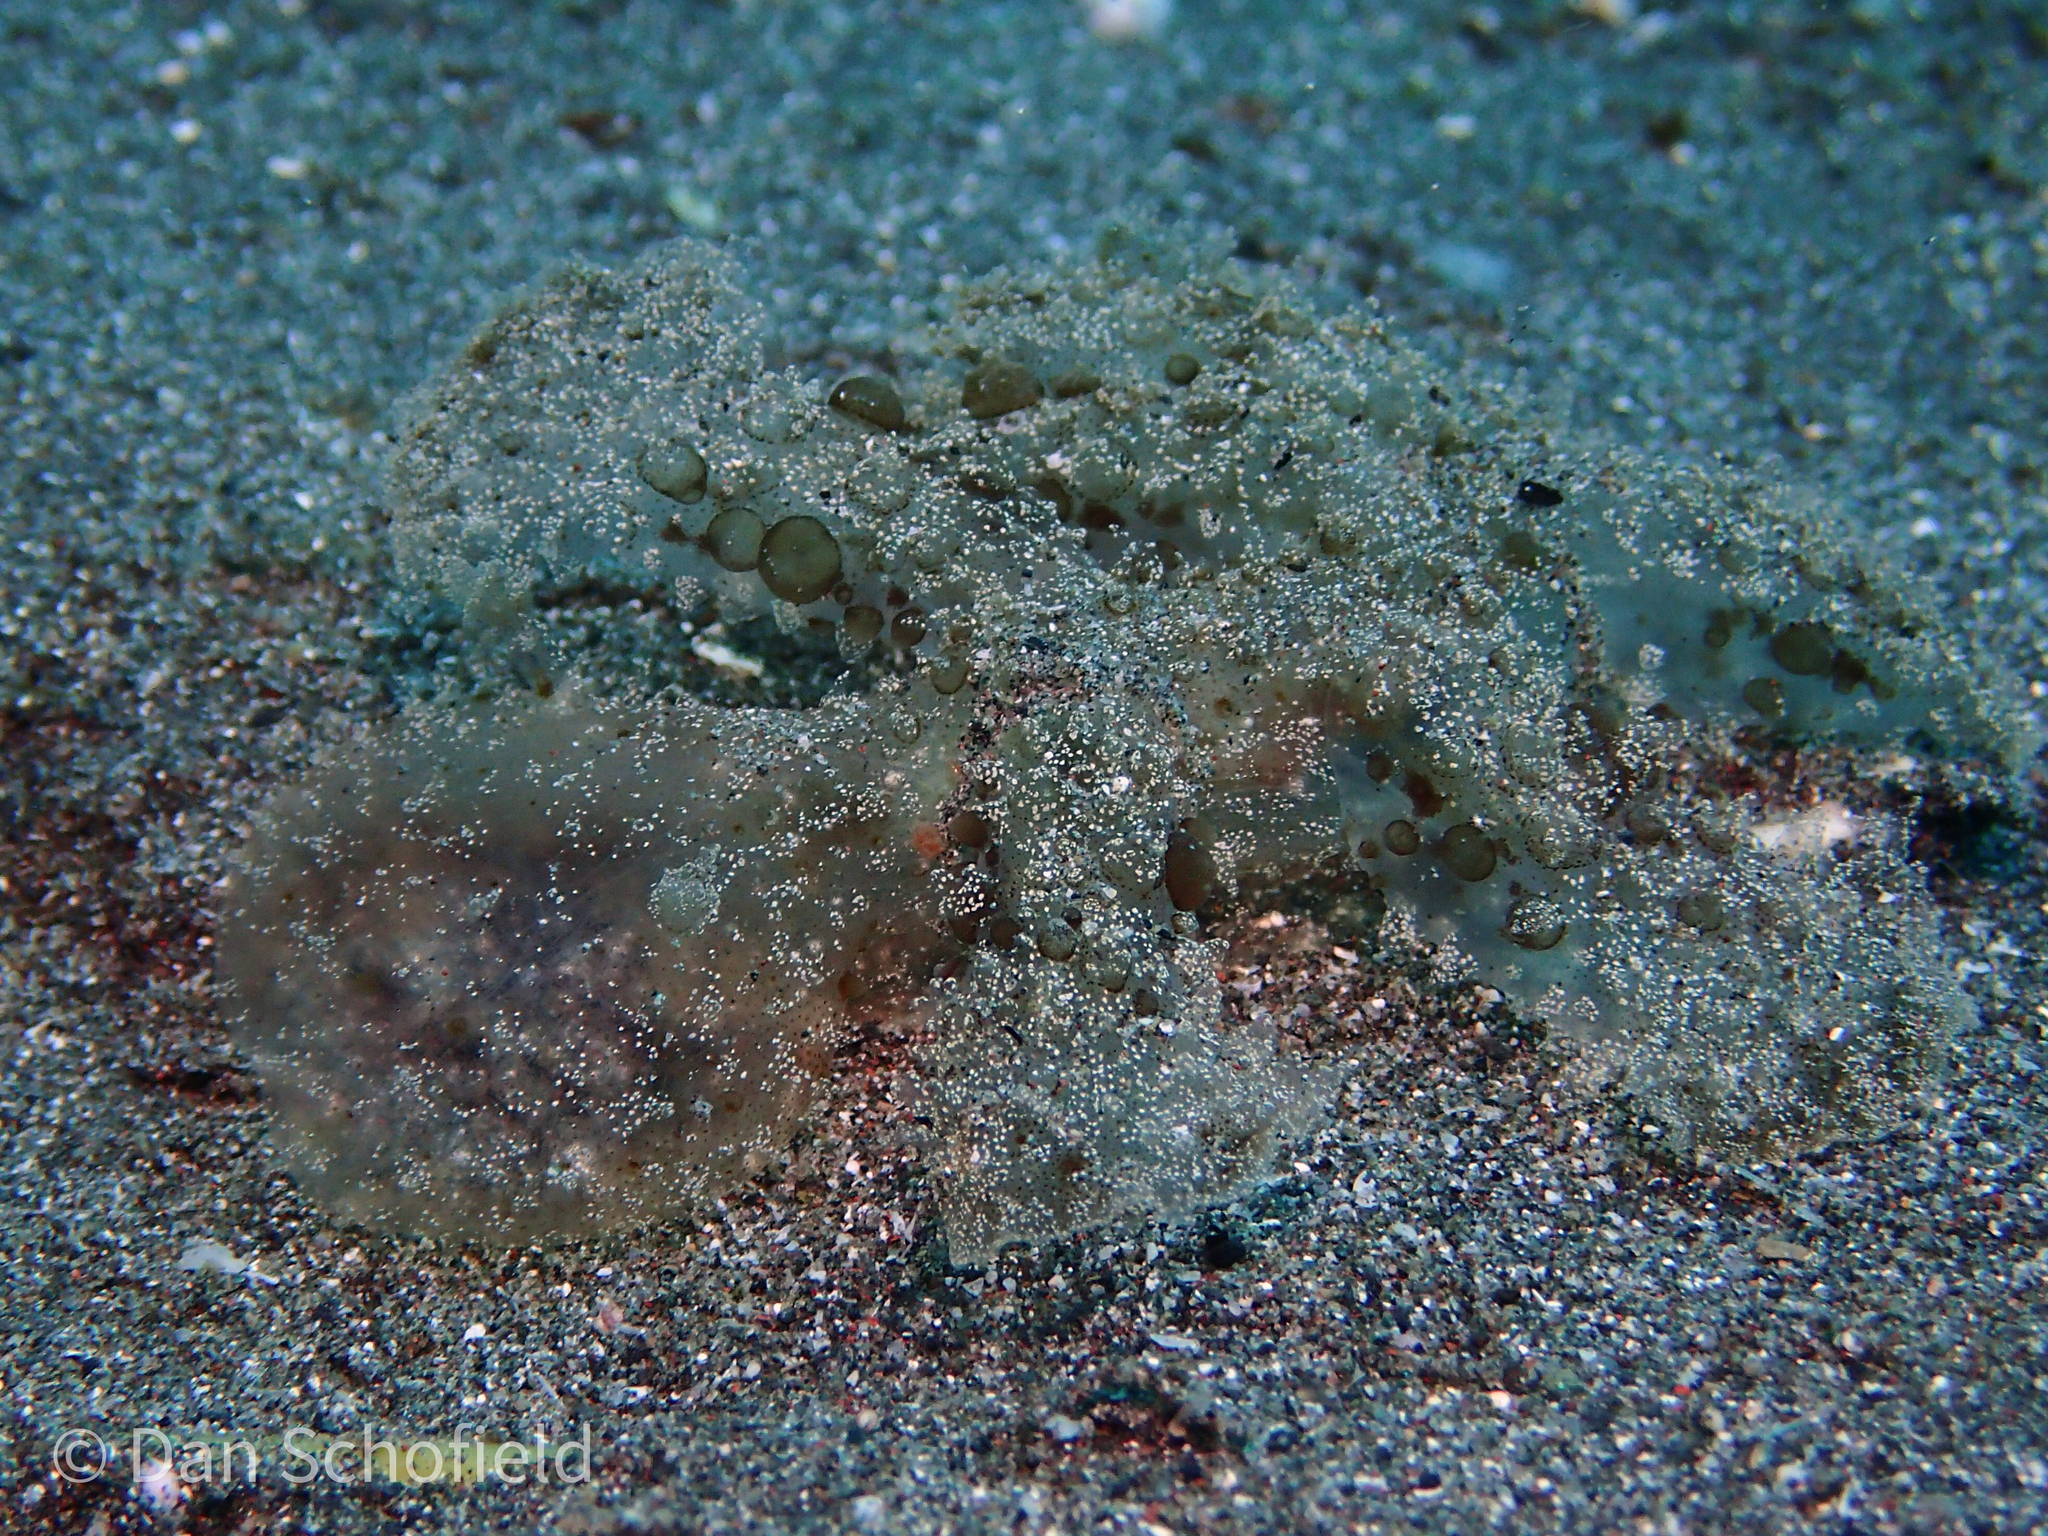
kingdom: Animalia
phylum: Mollusca
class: Gastropoda
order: Nudibranchia
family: Tethydidae
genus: Melibe
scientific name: Melibe viridis
